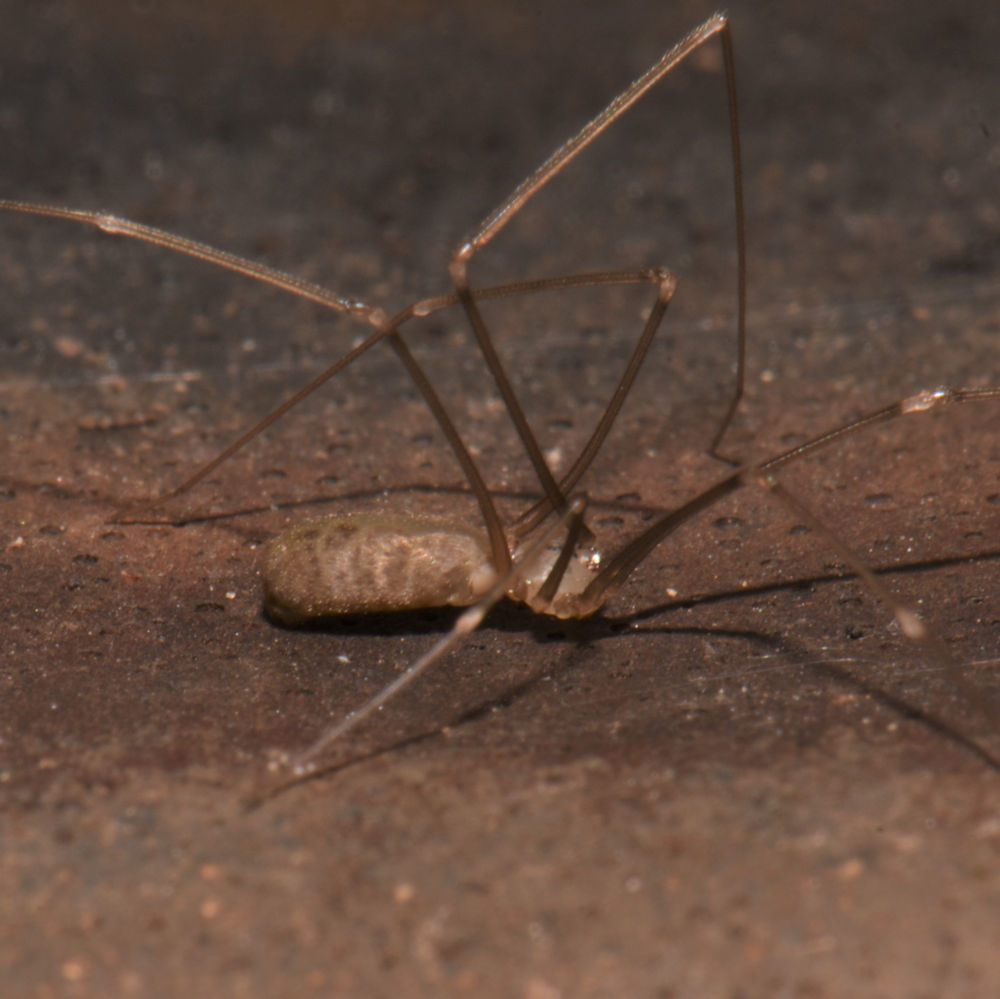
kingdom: Animalia
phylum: Arthropoda
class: Arachnida
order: Araneae
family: Pholcidae
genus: Pholcus
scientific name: Pholcus opilionoides
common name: Daddylongleg spider
